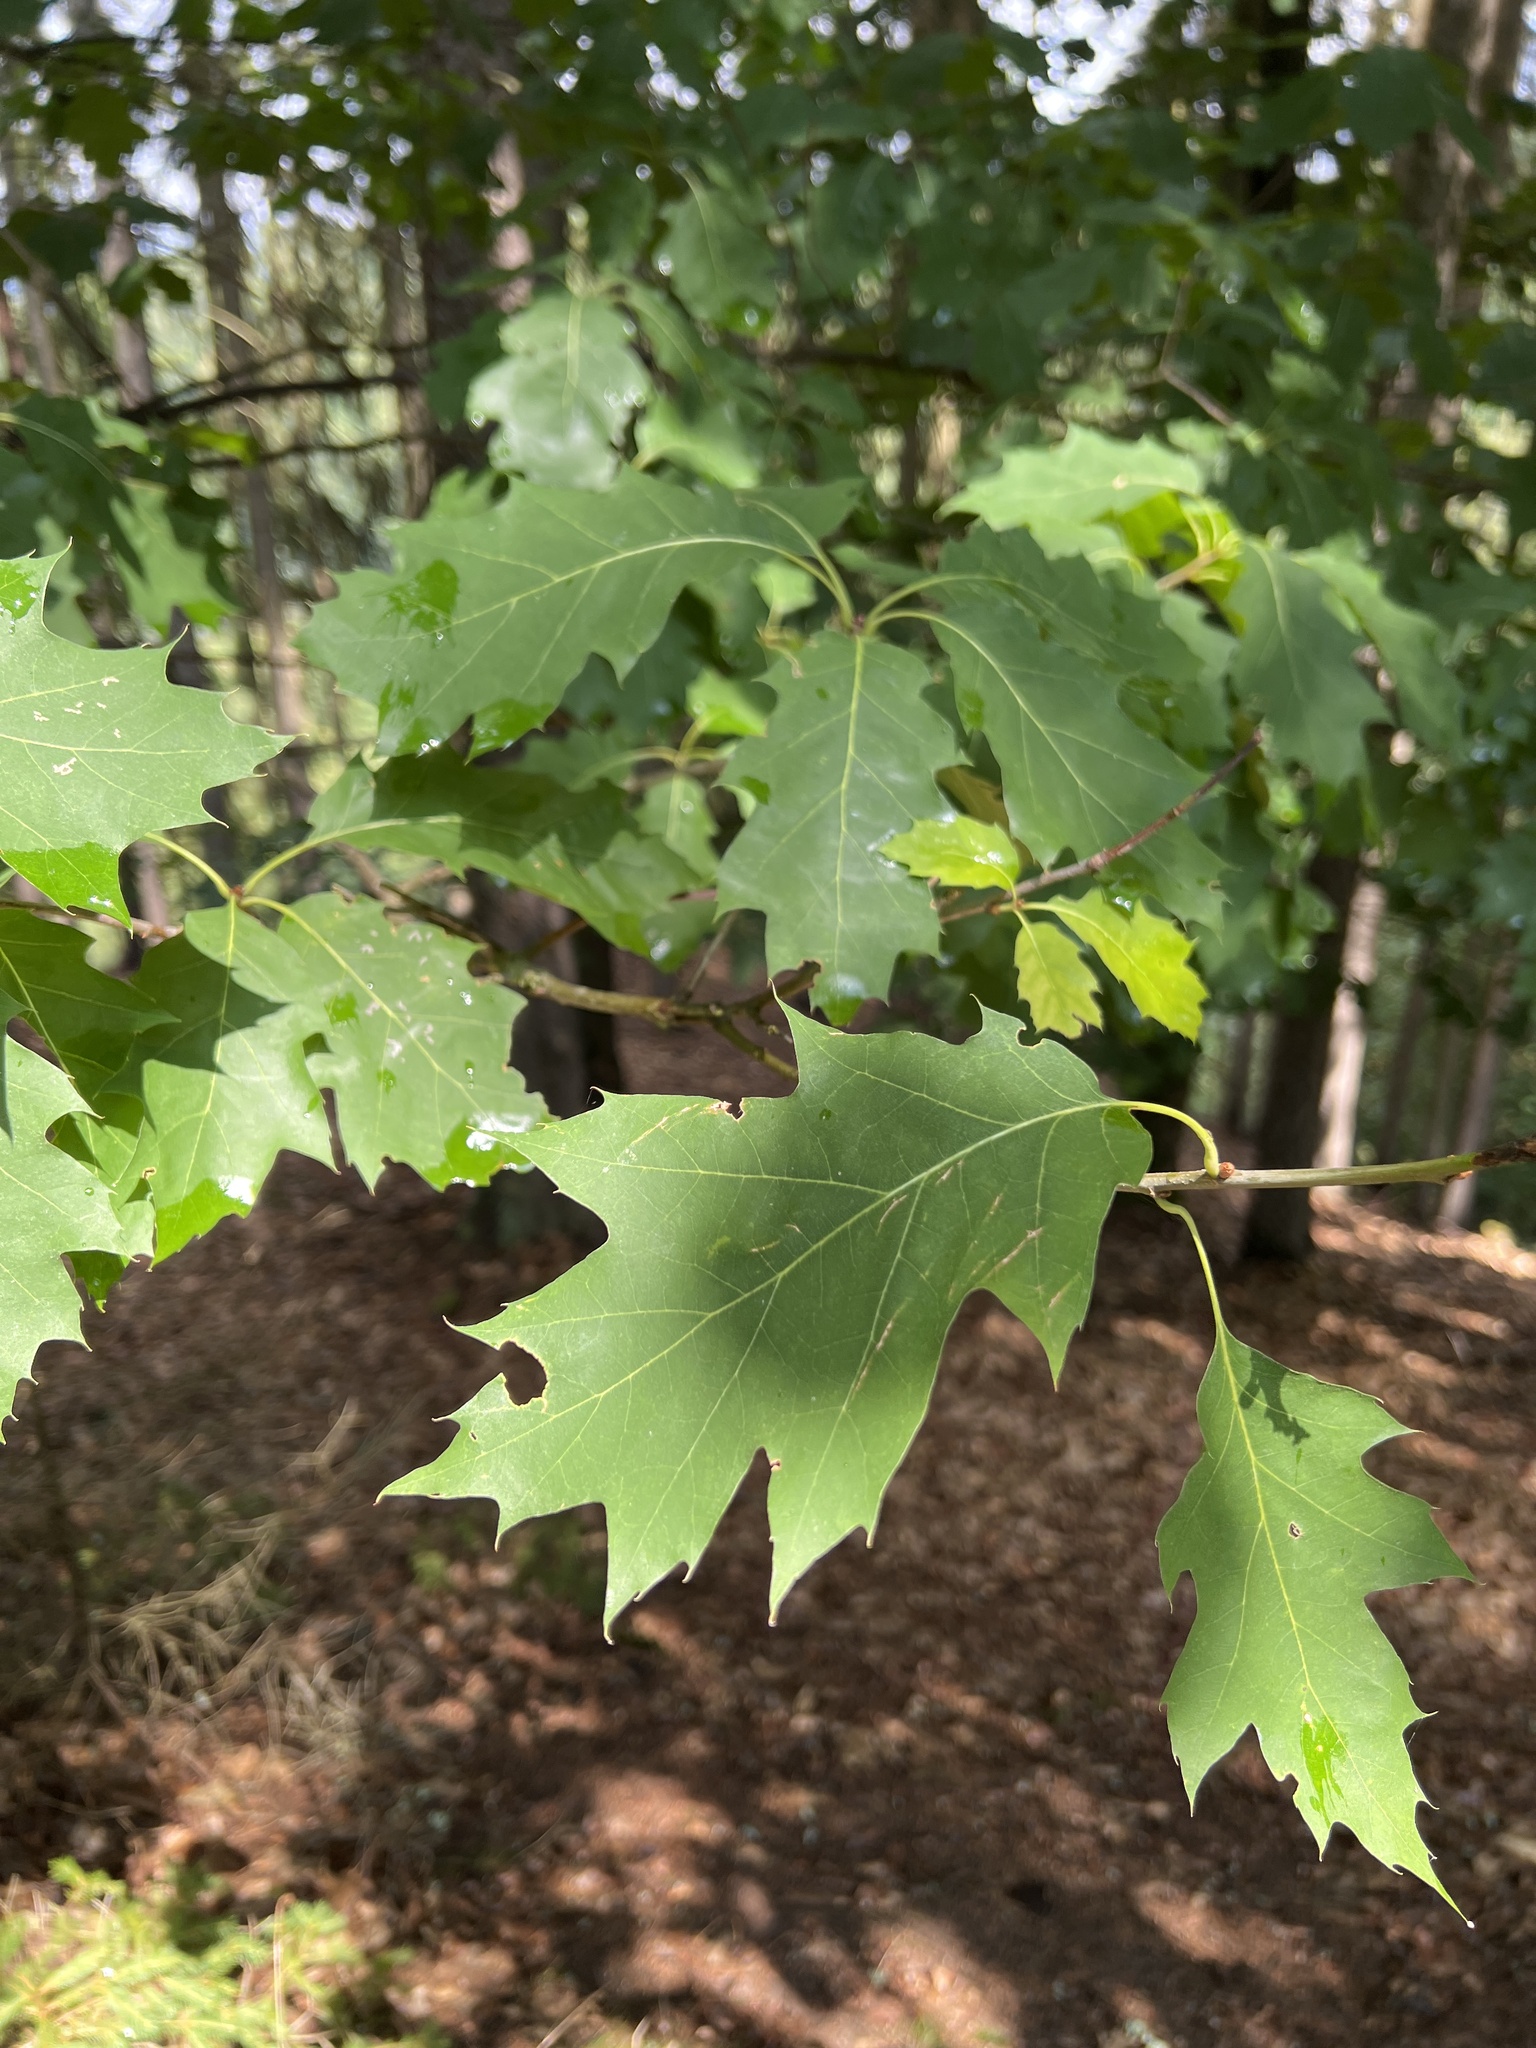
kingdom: Plantae
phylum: Tracheophyta
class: Magnoliopsida
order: Fagales
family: Fagaceae
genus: Quercus
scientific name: Quercus rubra
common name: Red oak
